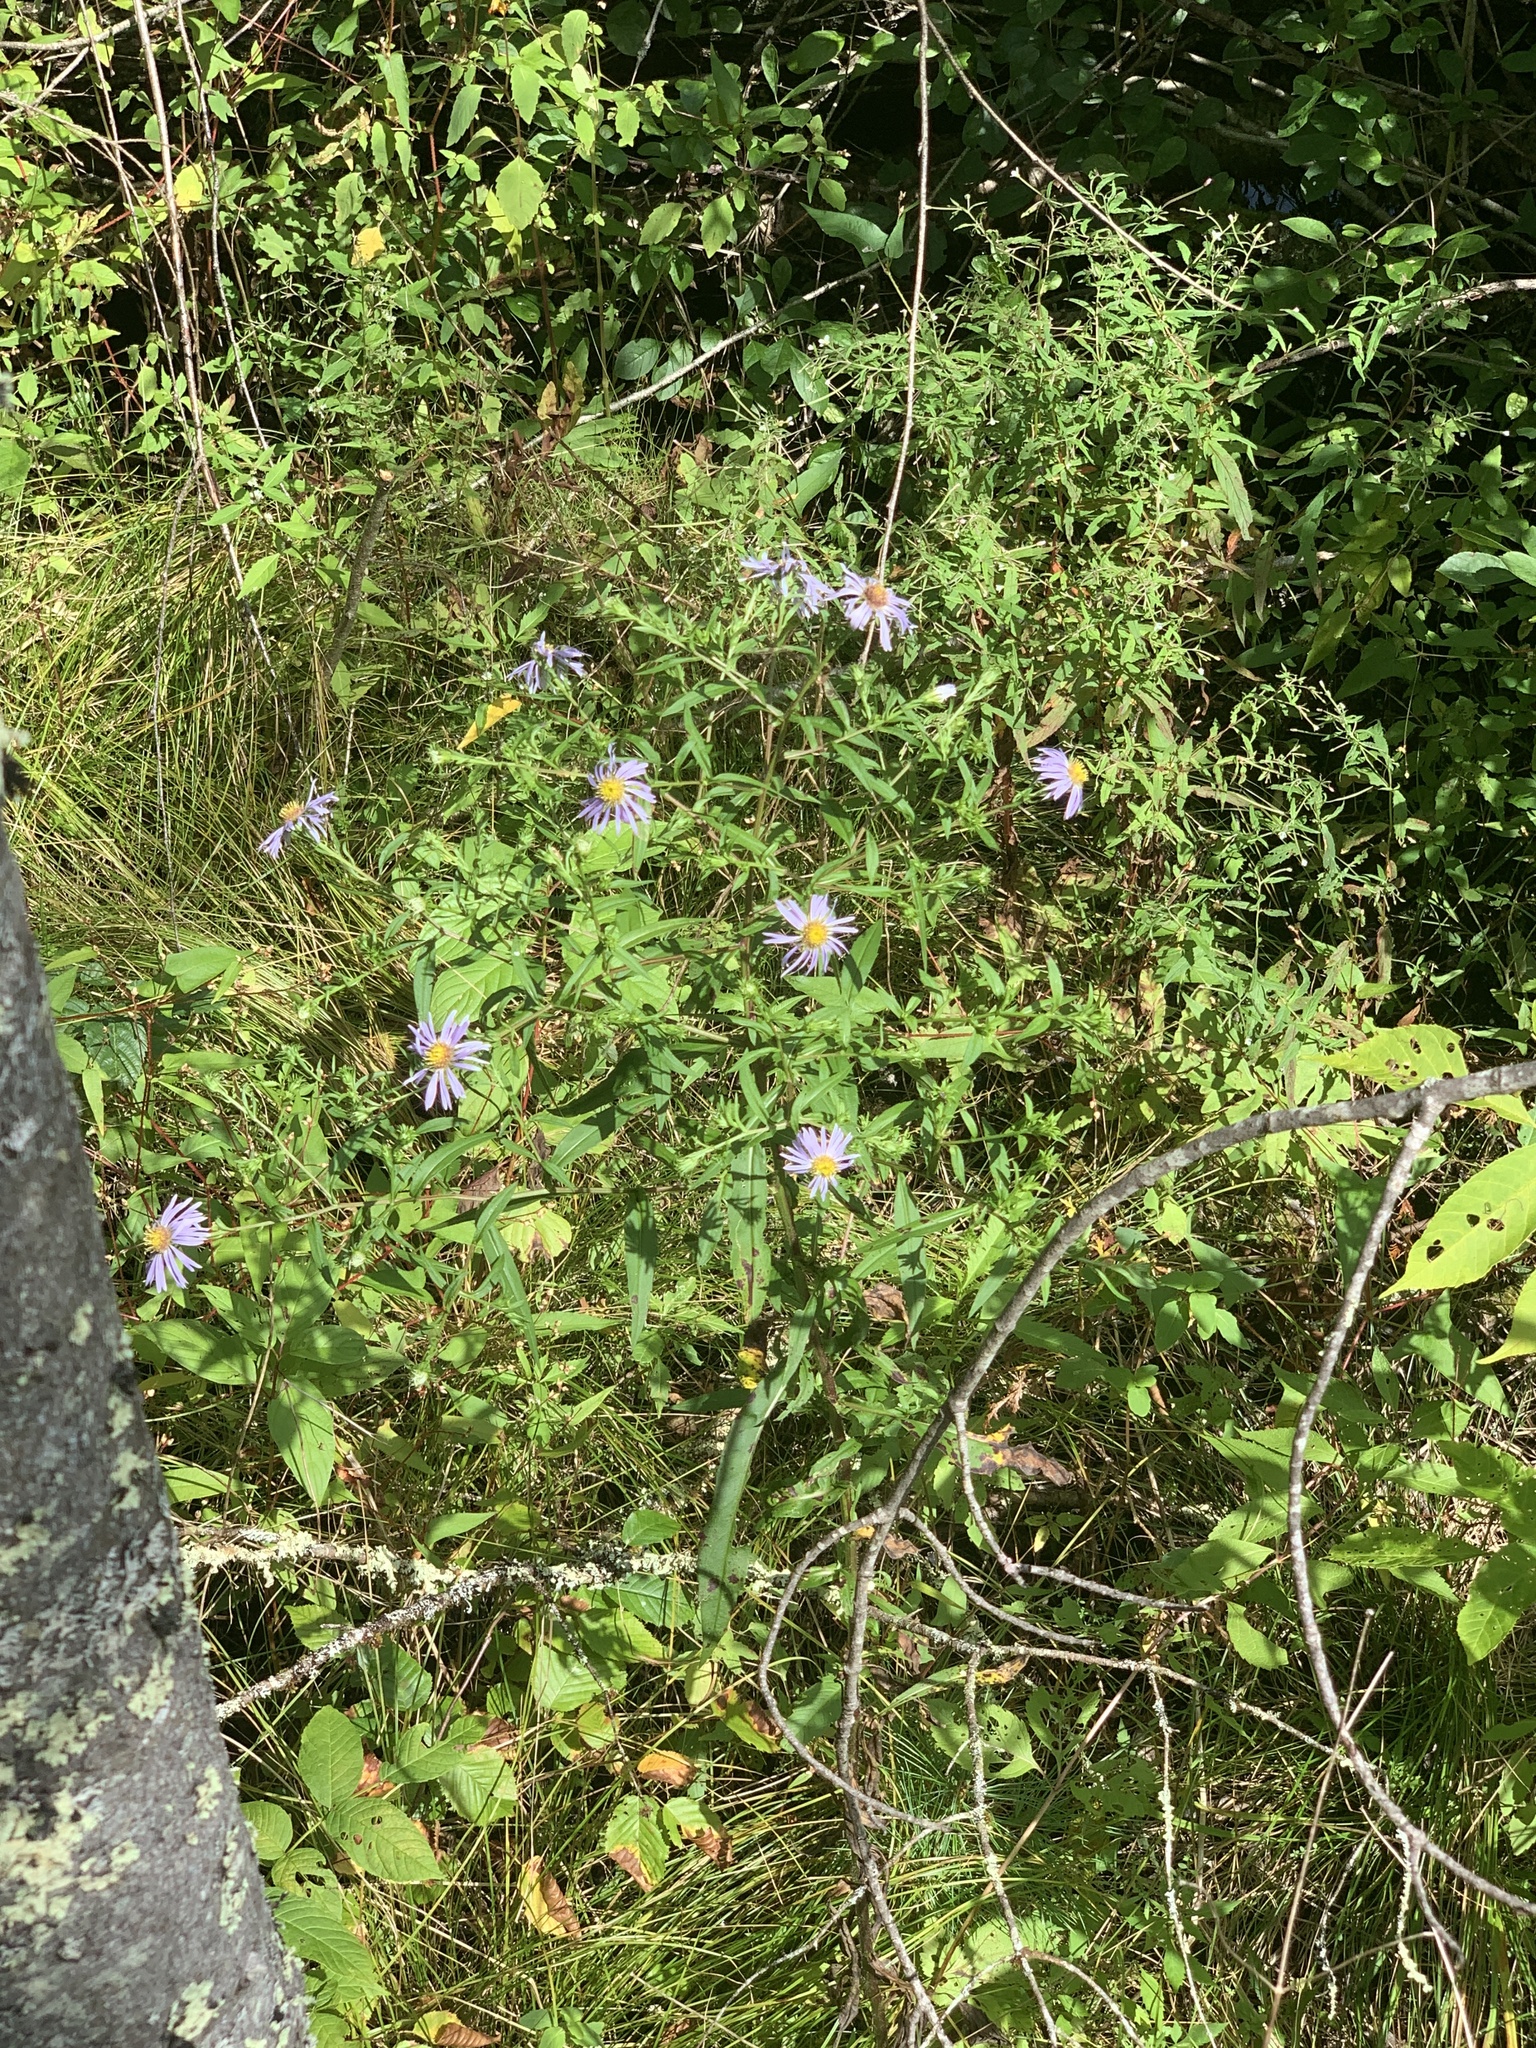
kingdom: Plantae
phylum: Tracheophyta
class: Magnoliopsida
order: Asterales
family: Asteraceae
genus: Symphyotrichum
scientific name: Symphyotrichum puniceum
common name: Bog aster
